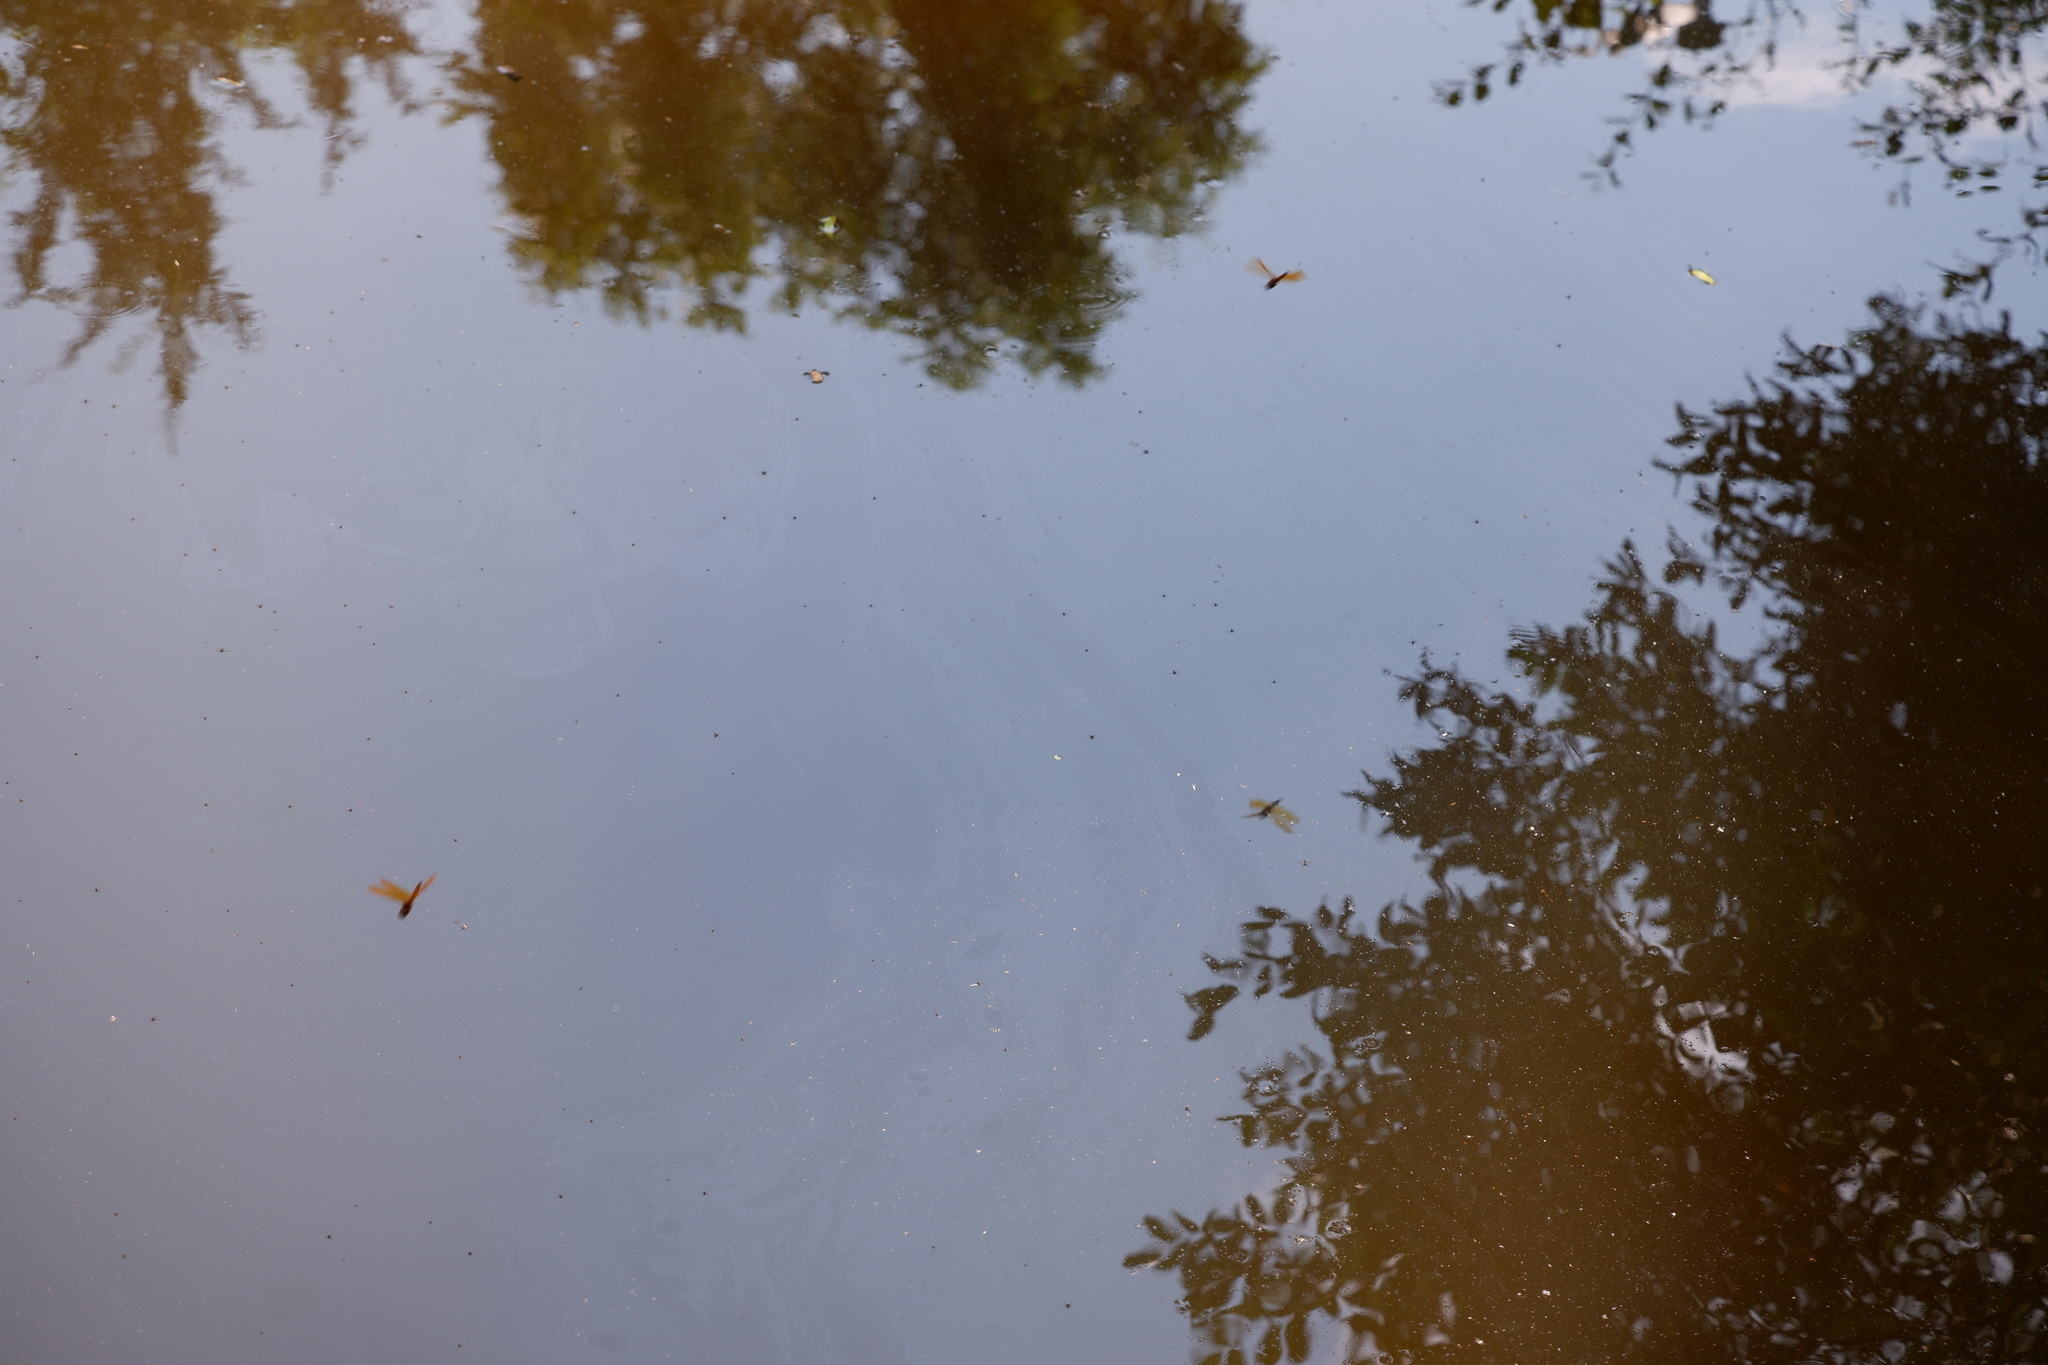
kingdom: Animalia
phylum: Arthropoda
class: Insecta
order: Odonata
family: Libellulidae
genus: Perithemis
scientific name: Perithemis tenera
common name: Eastern amberwing
